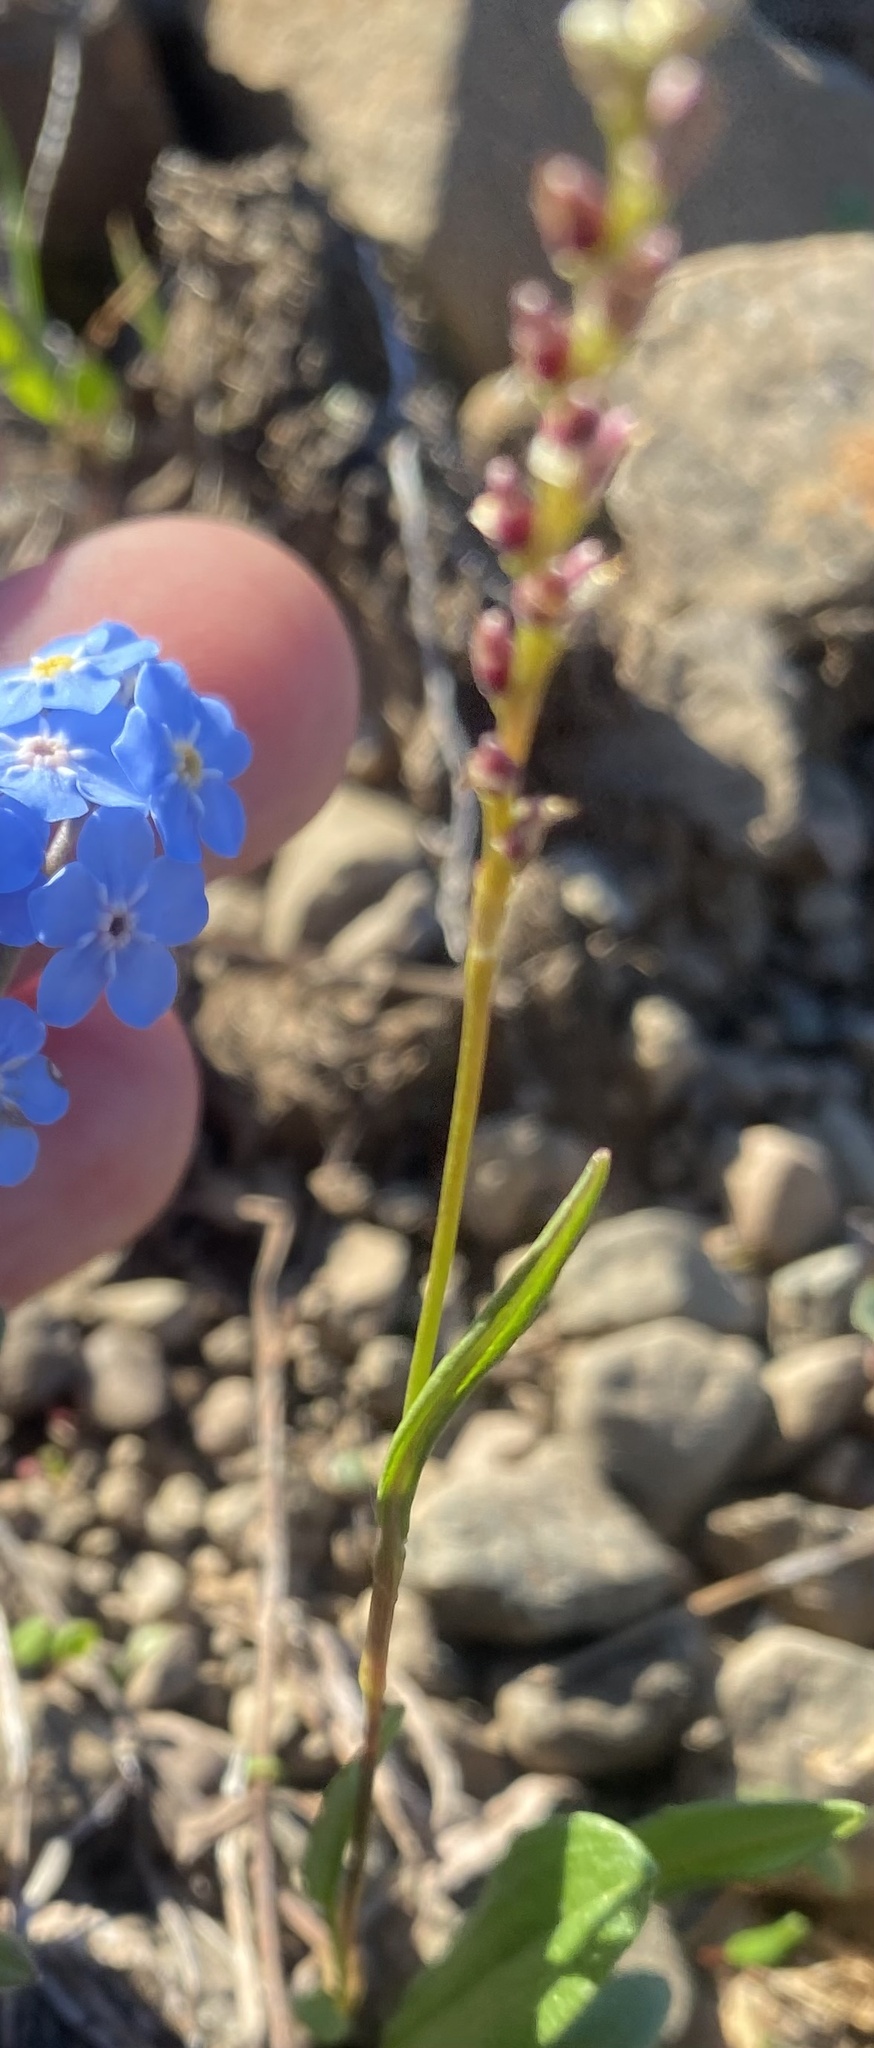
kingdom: Plantae
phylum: Tracheophyta
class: Magnoliopsida
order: Caryophyllales
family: Polygonaceae
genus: Bistorta
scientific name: Bistorta vivipara
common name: Alpine bistort
